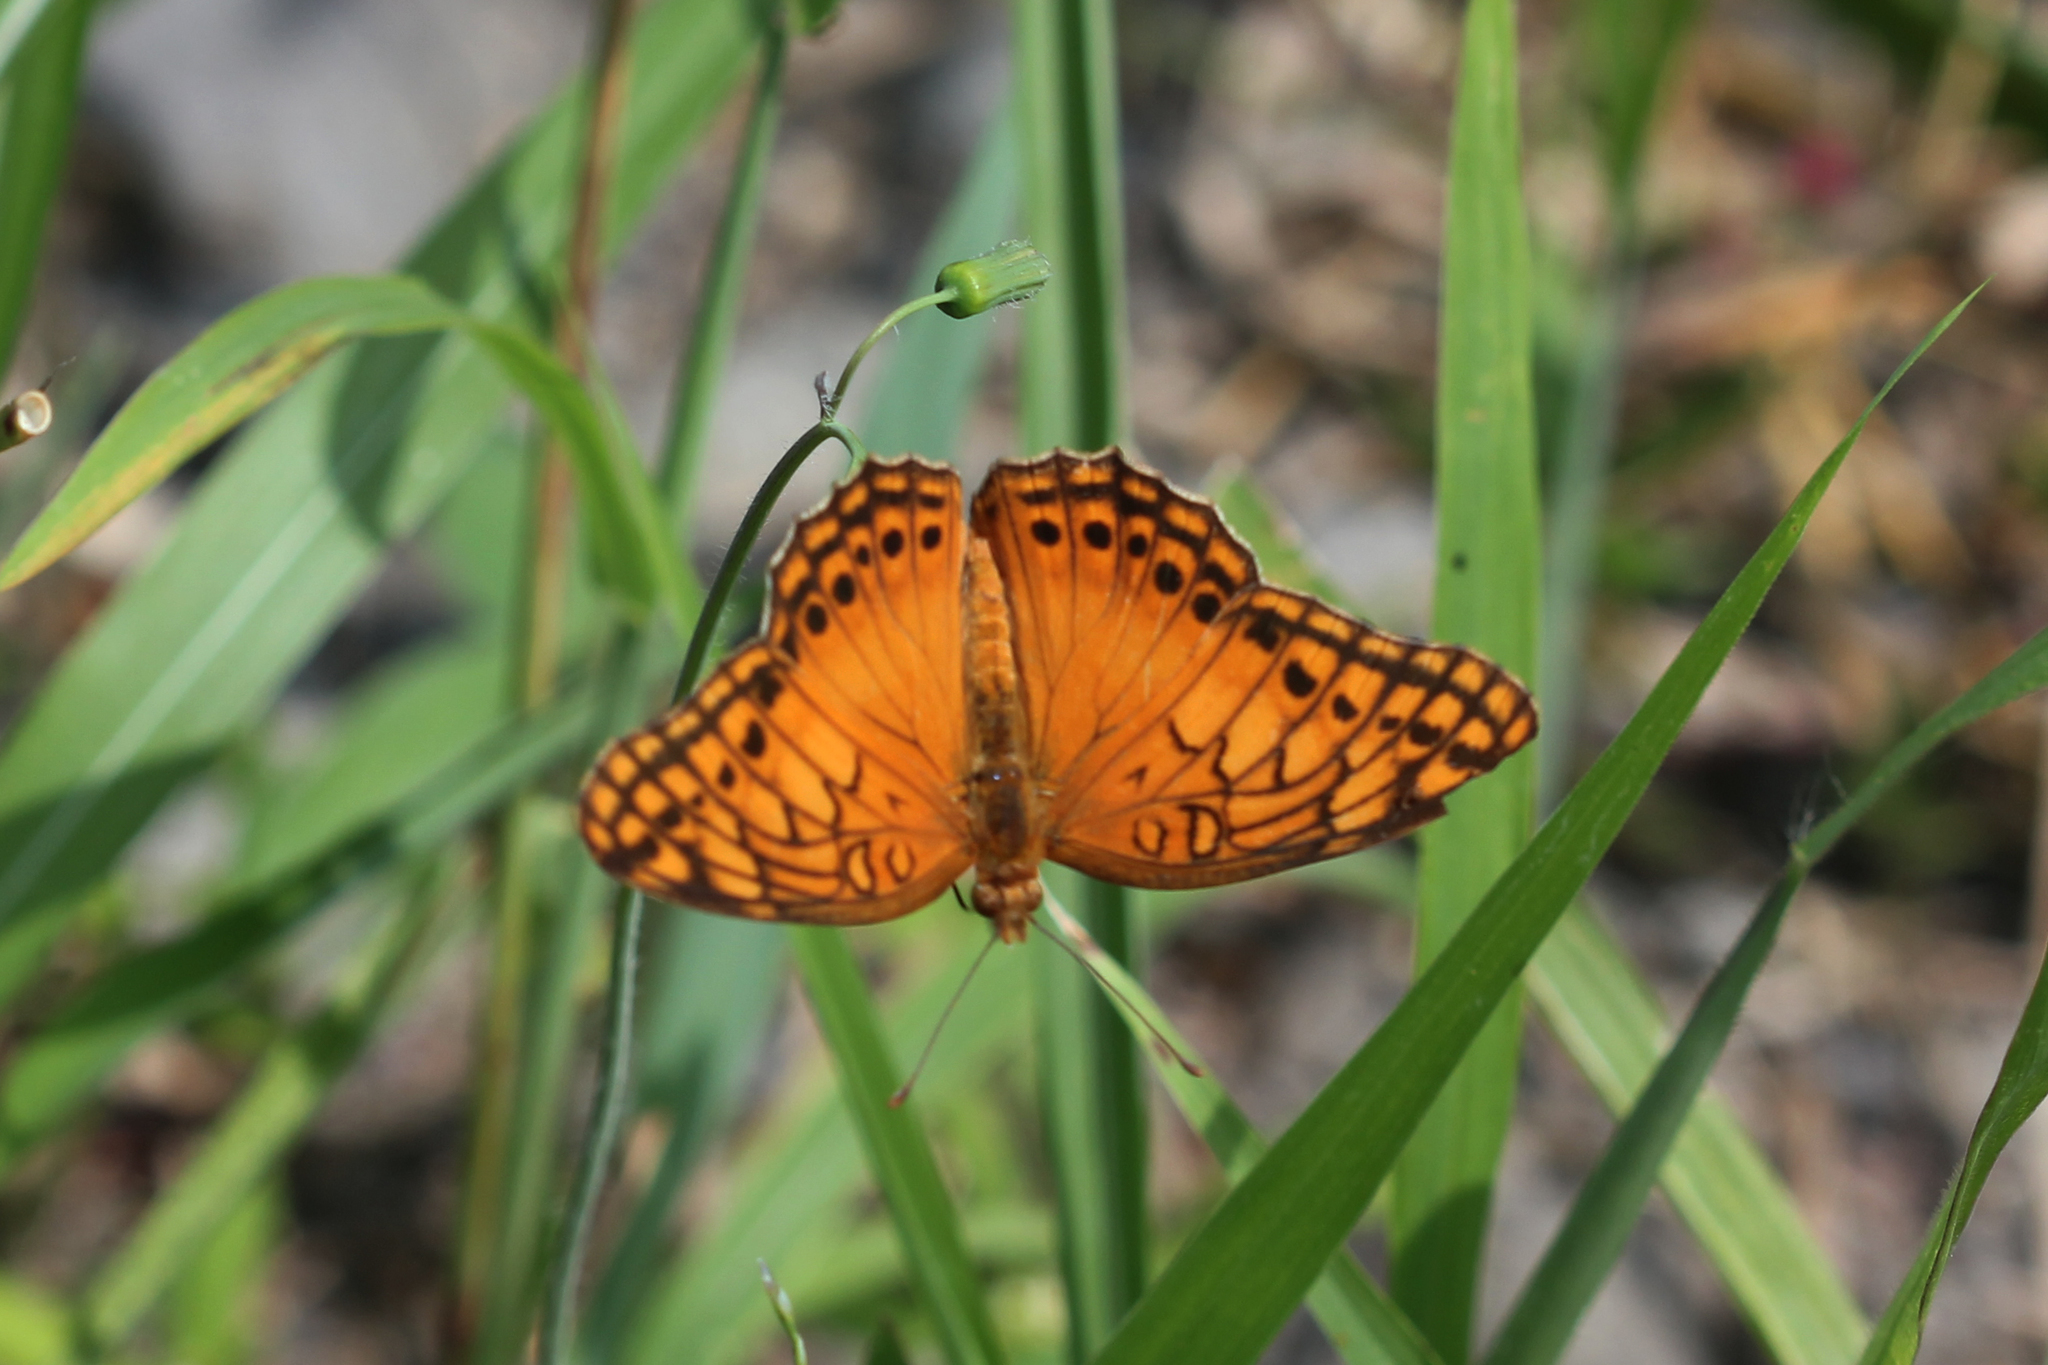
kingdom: Animalia
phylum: Arthropoda
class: Insecta
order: Lepidoptera
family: Nymphalidae
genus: Euptoieta
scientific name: Euptoieta hegesia
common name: Mexican fritillary
